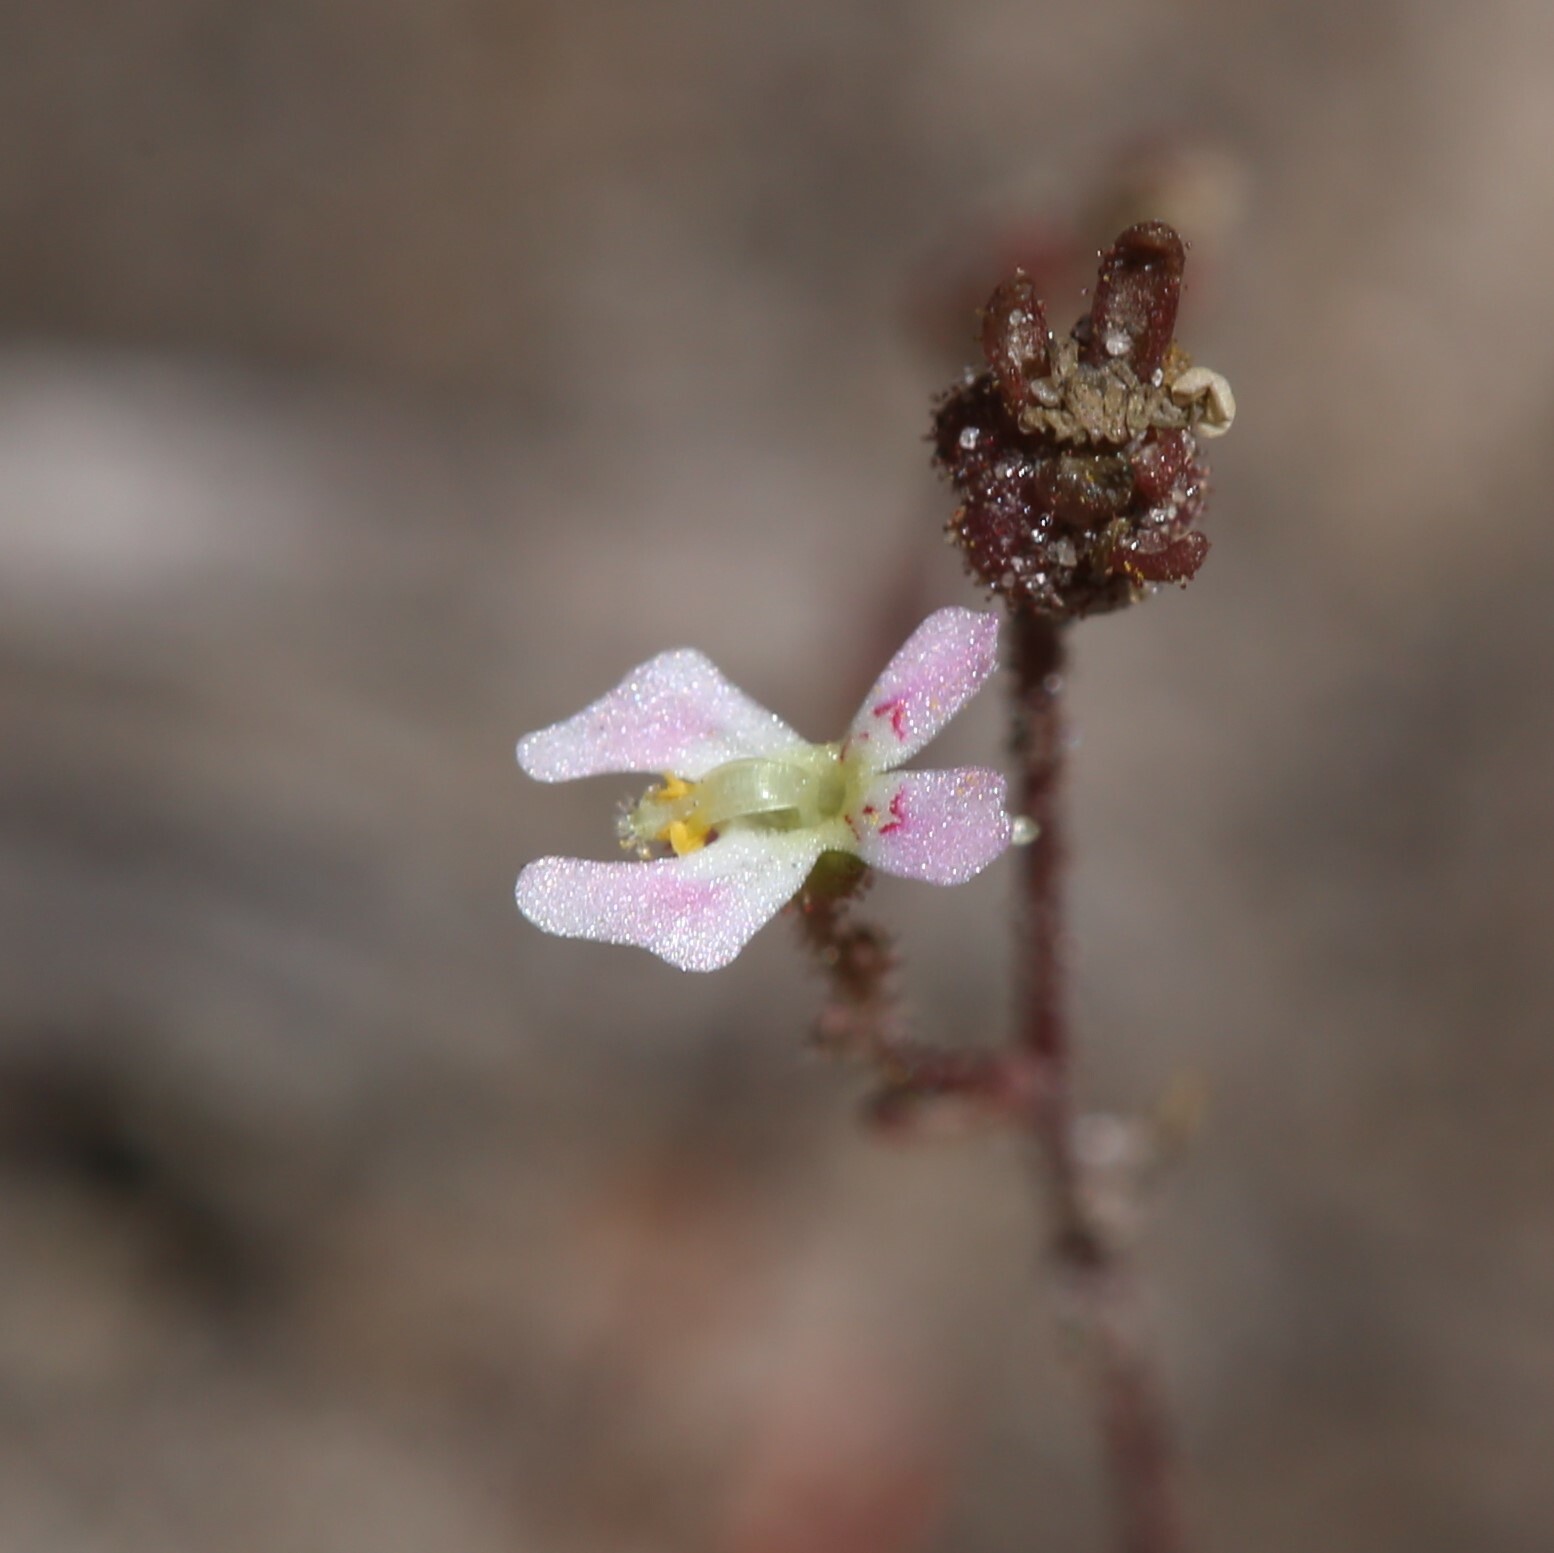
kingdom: Plantae
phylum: Tracheophyta
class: Magnoliopsida
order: Asterales
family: Stylidiaceae
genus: Stylidium
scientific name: Stylidium calcaratum
